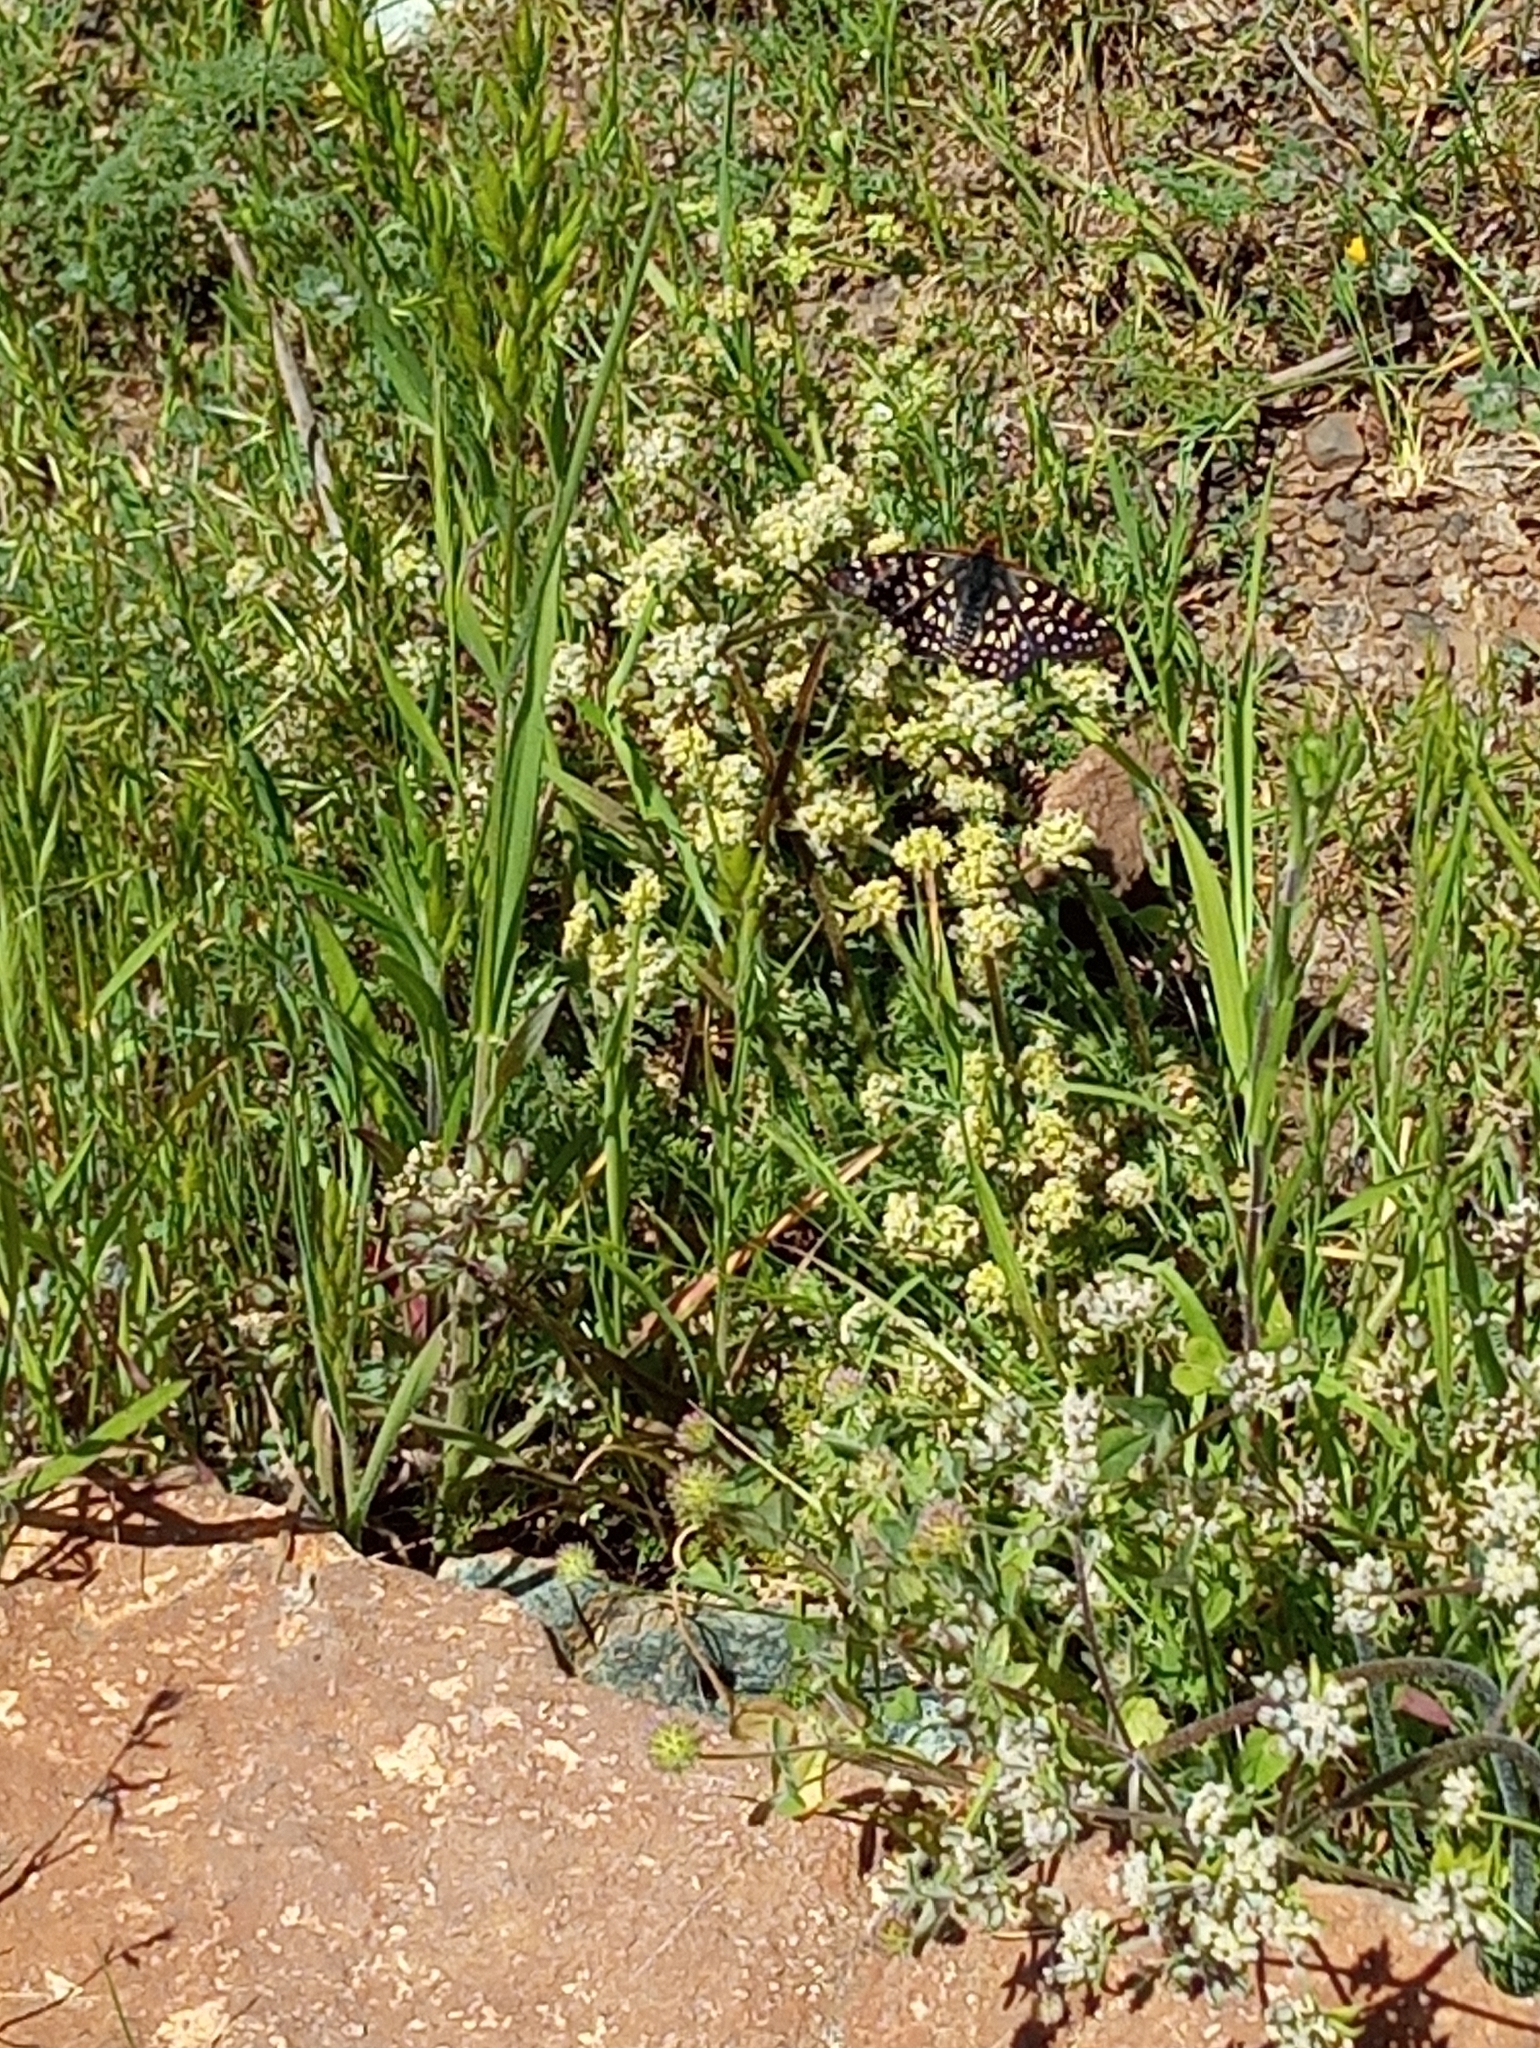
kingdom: Animalia
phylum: Arthropoda
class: Insecta
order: Lepidoptera
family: Nymphalidae
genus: Occidryas
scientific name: Occidryas chalcedona
